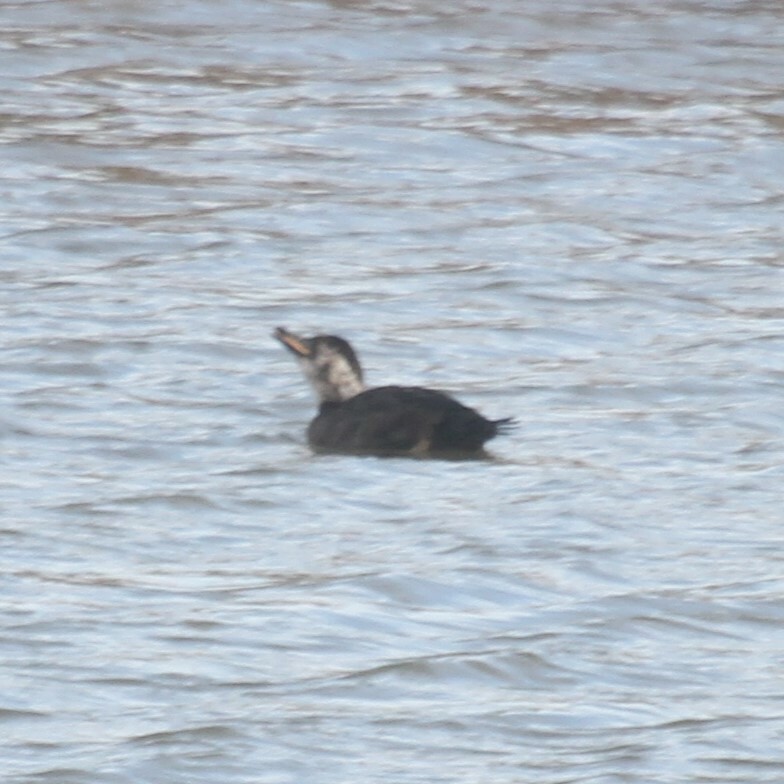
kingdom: Animalia
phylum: Chordata
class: Aves
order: Anseriformes
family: Anatidae
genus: Melanitta
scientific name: Melanitta nigra
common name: Common scoter
